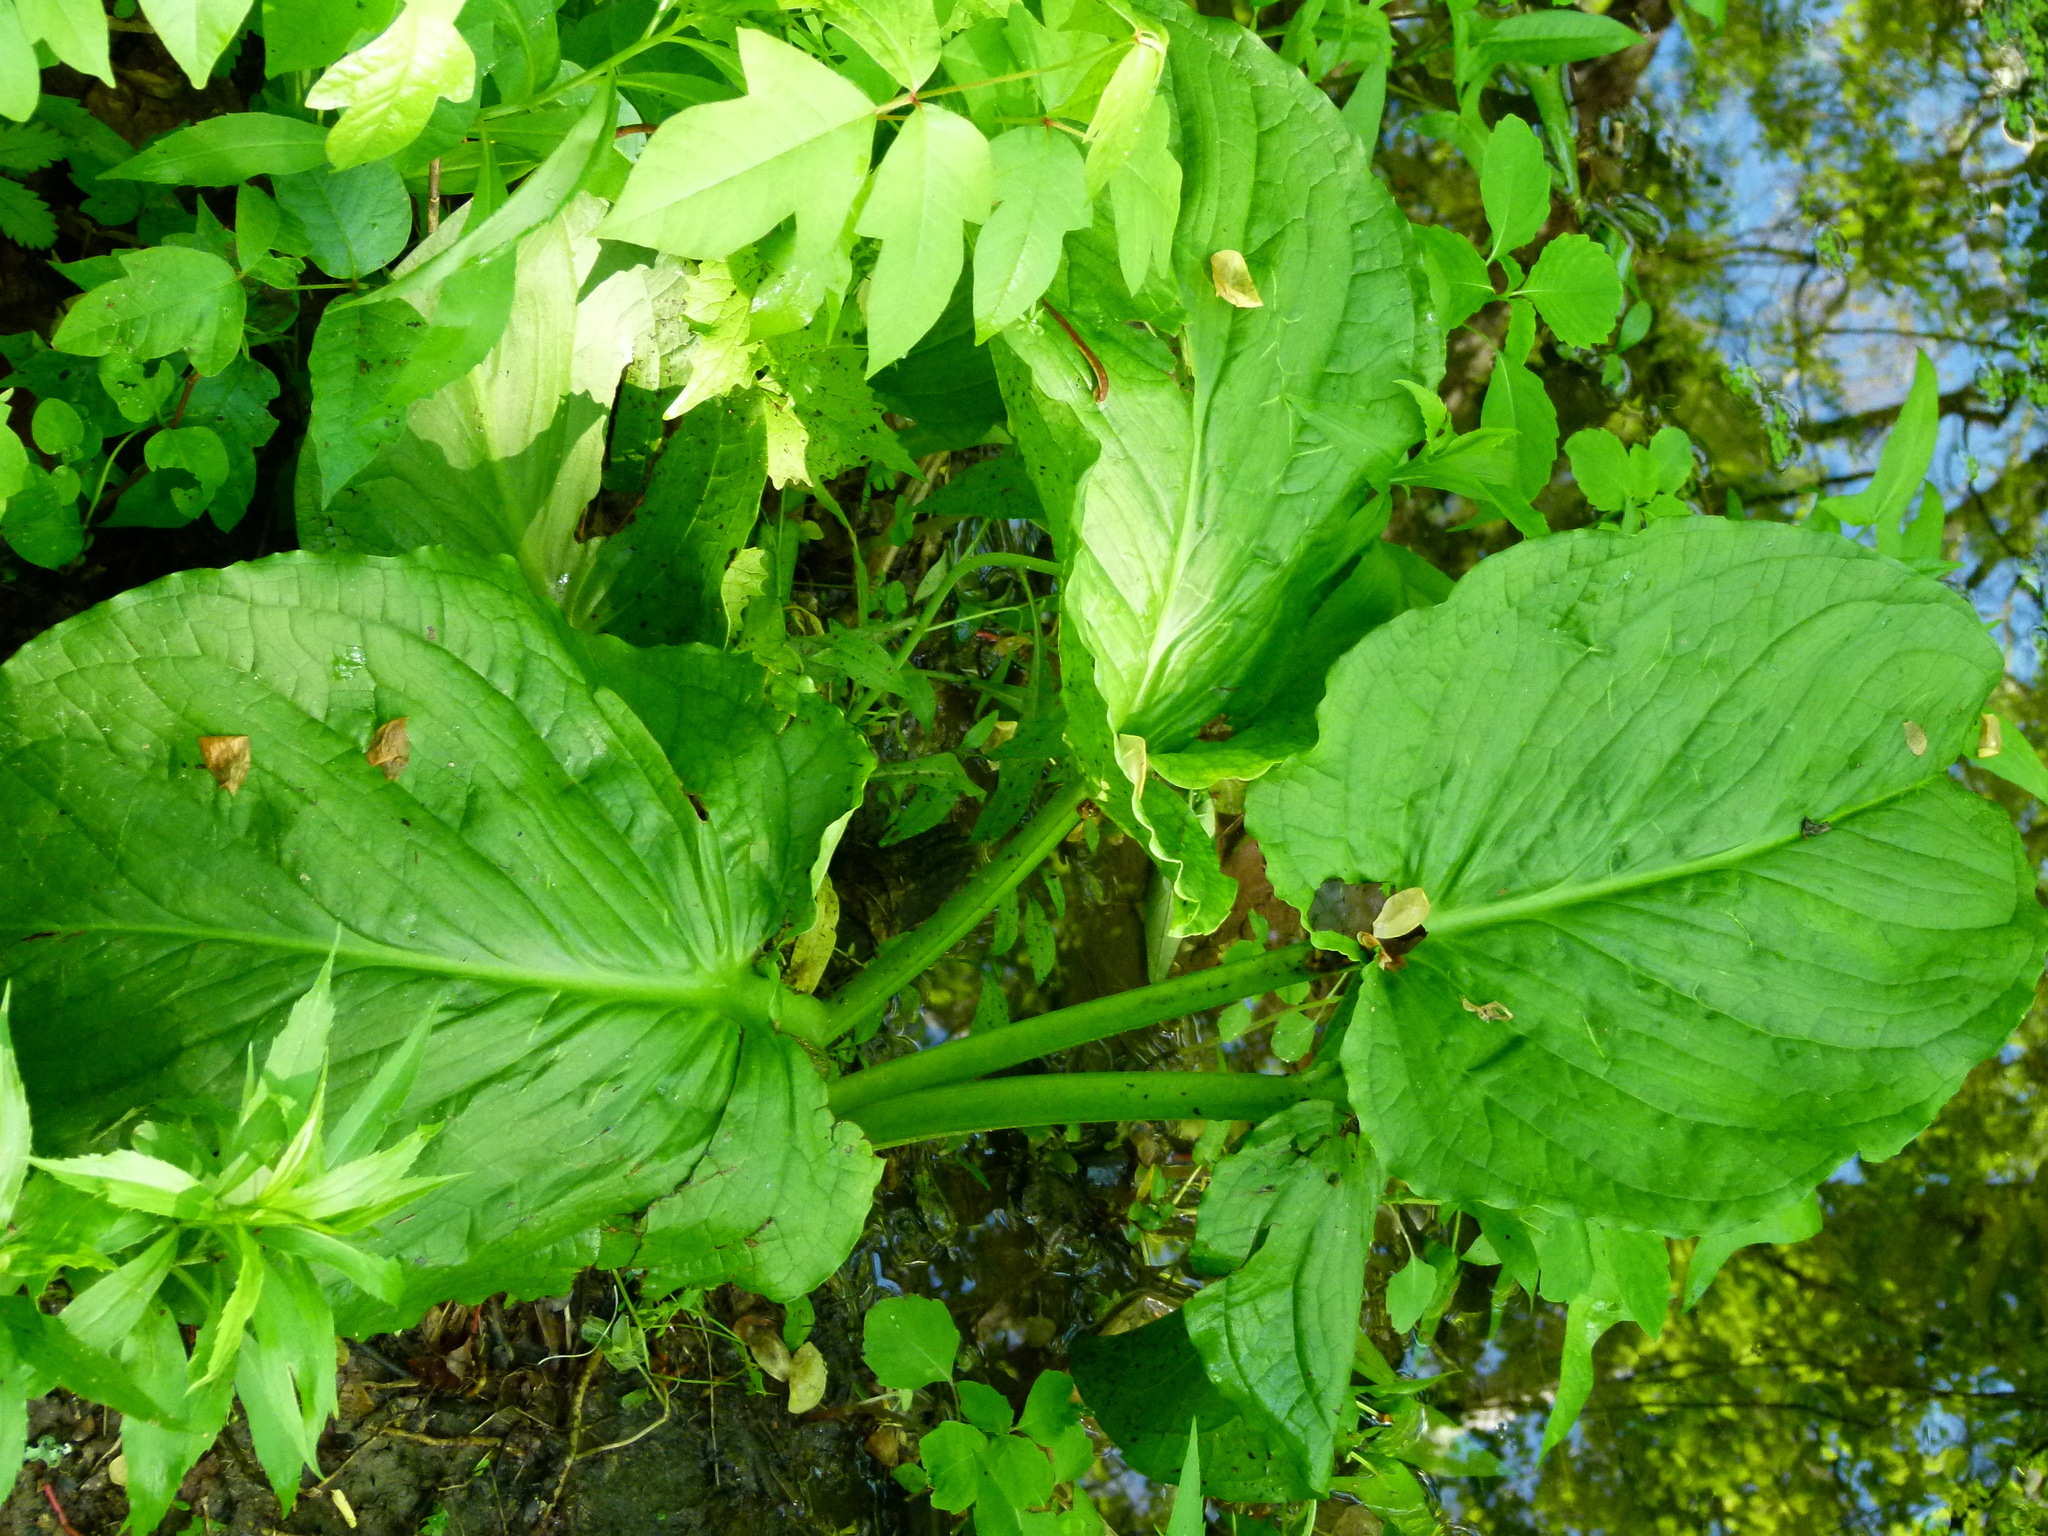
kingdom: Plantae
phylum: Tracheophyta
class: Liliopsida
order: Alismatales
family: Araceae
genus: Symplocarpus
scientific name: Symplocarpus foetidus
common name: Eastern skunk cabbage
